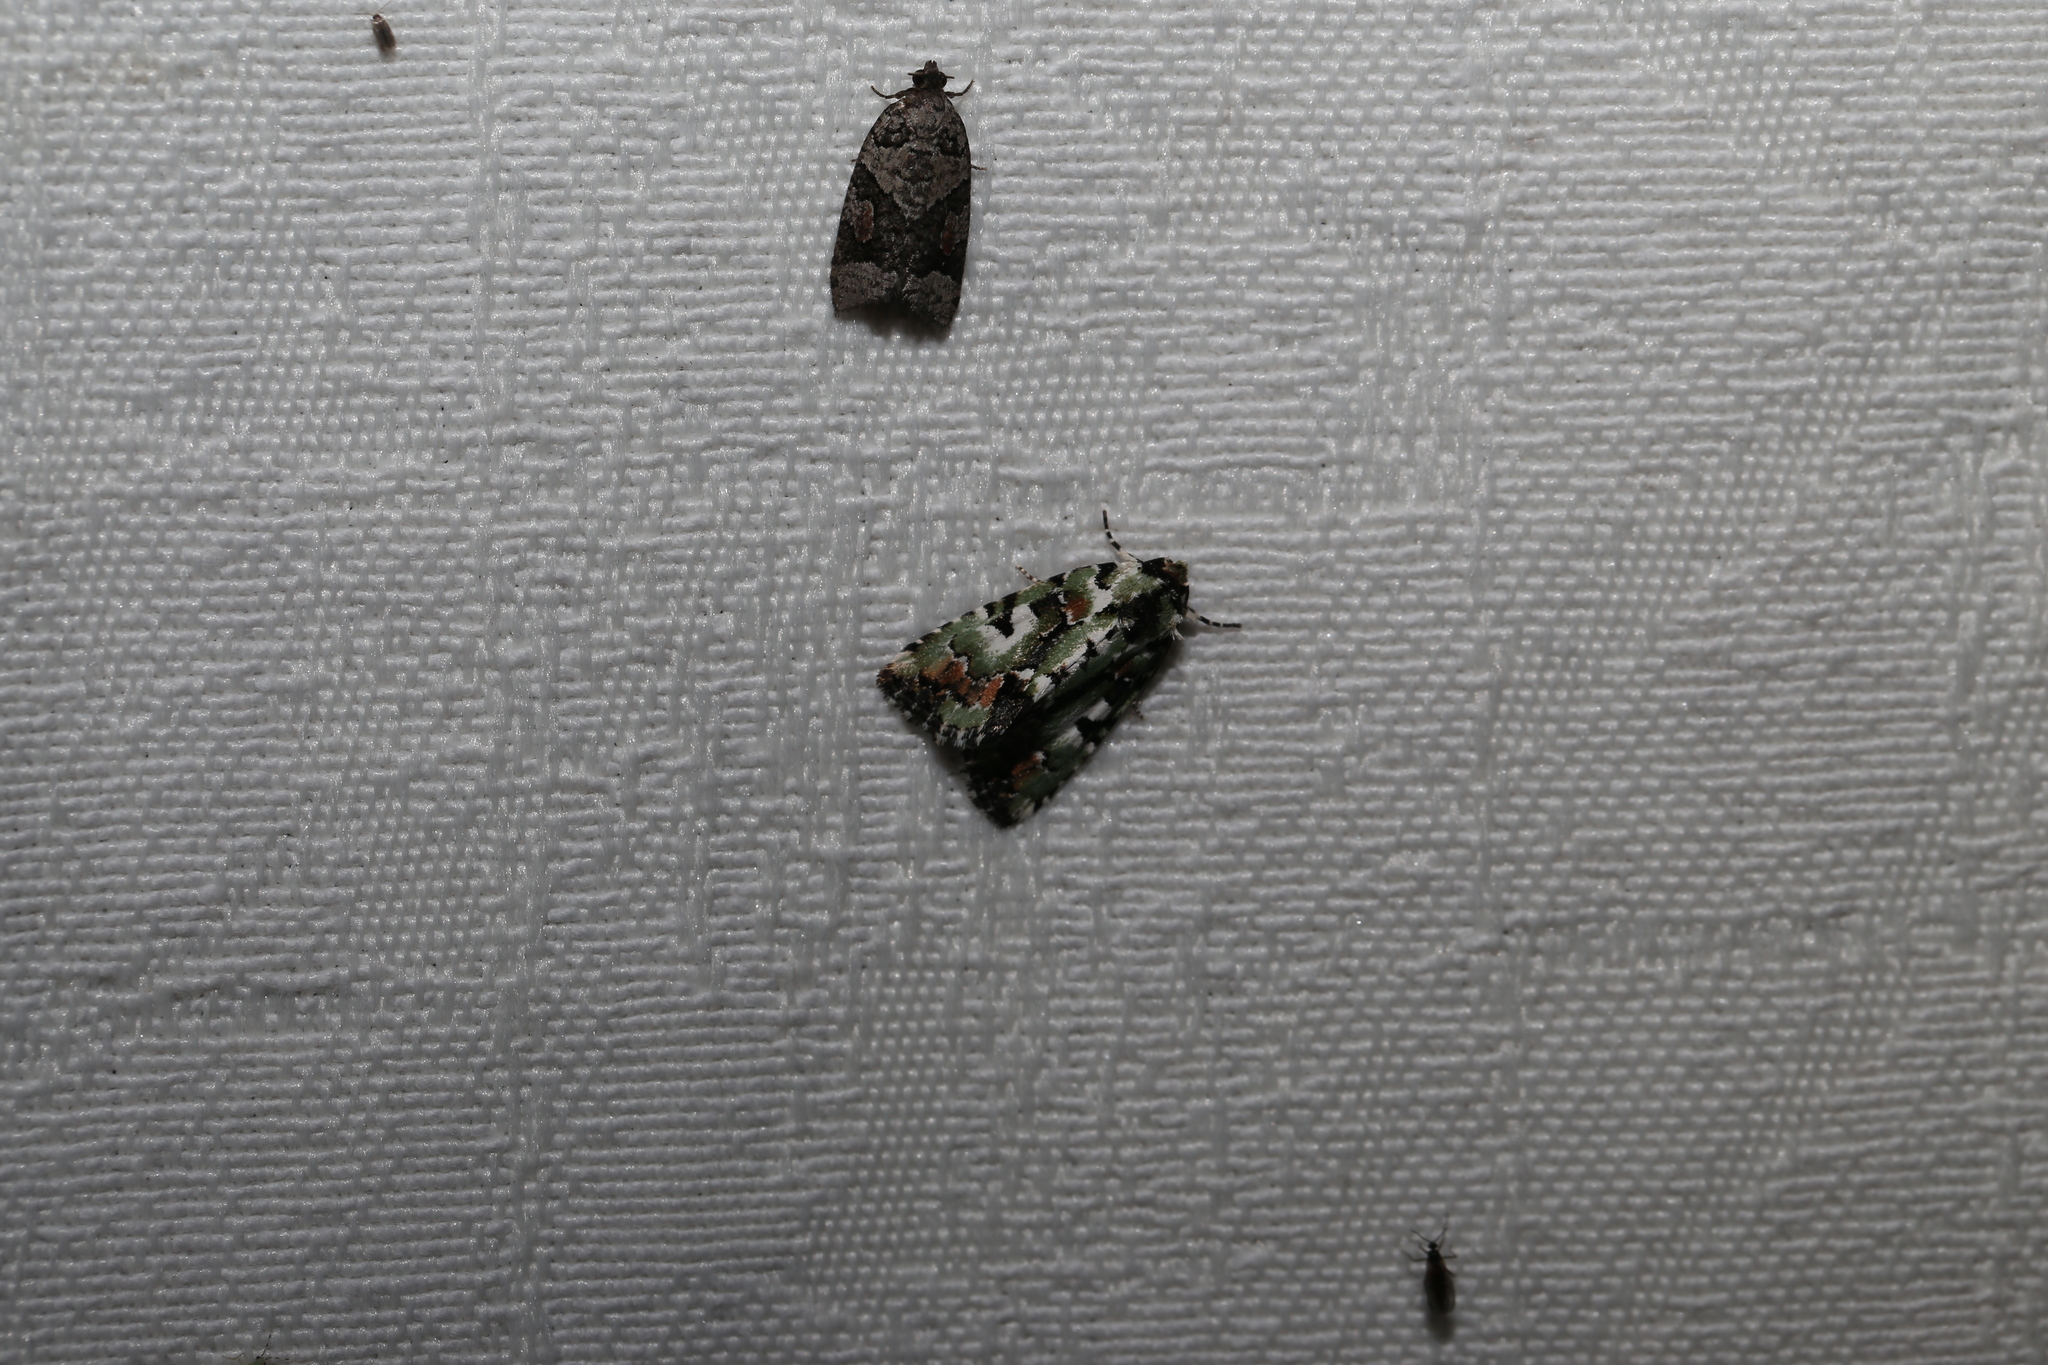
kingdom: Animalia
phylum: Arthropoda
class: Insecta
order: Lepidoptera
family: Noctuidae
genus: Epicyrtica
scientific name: Epicyrtica metallica
